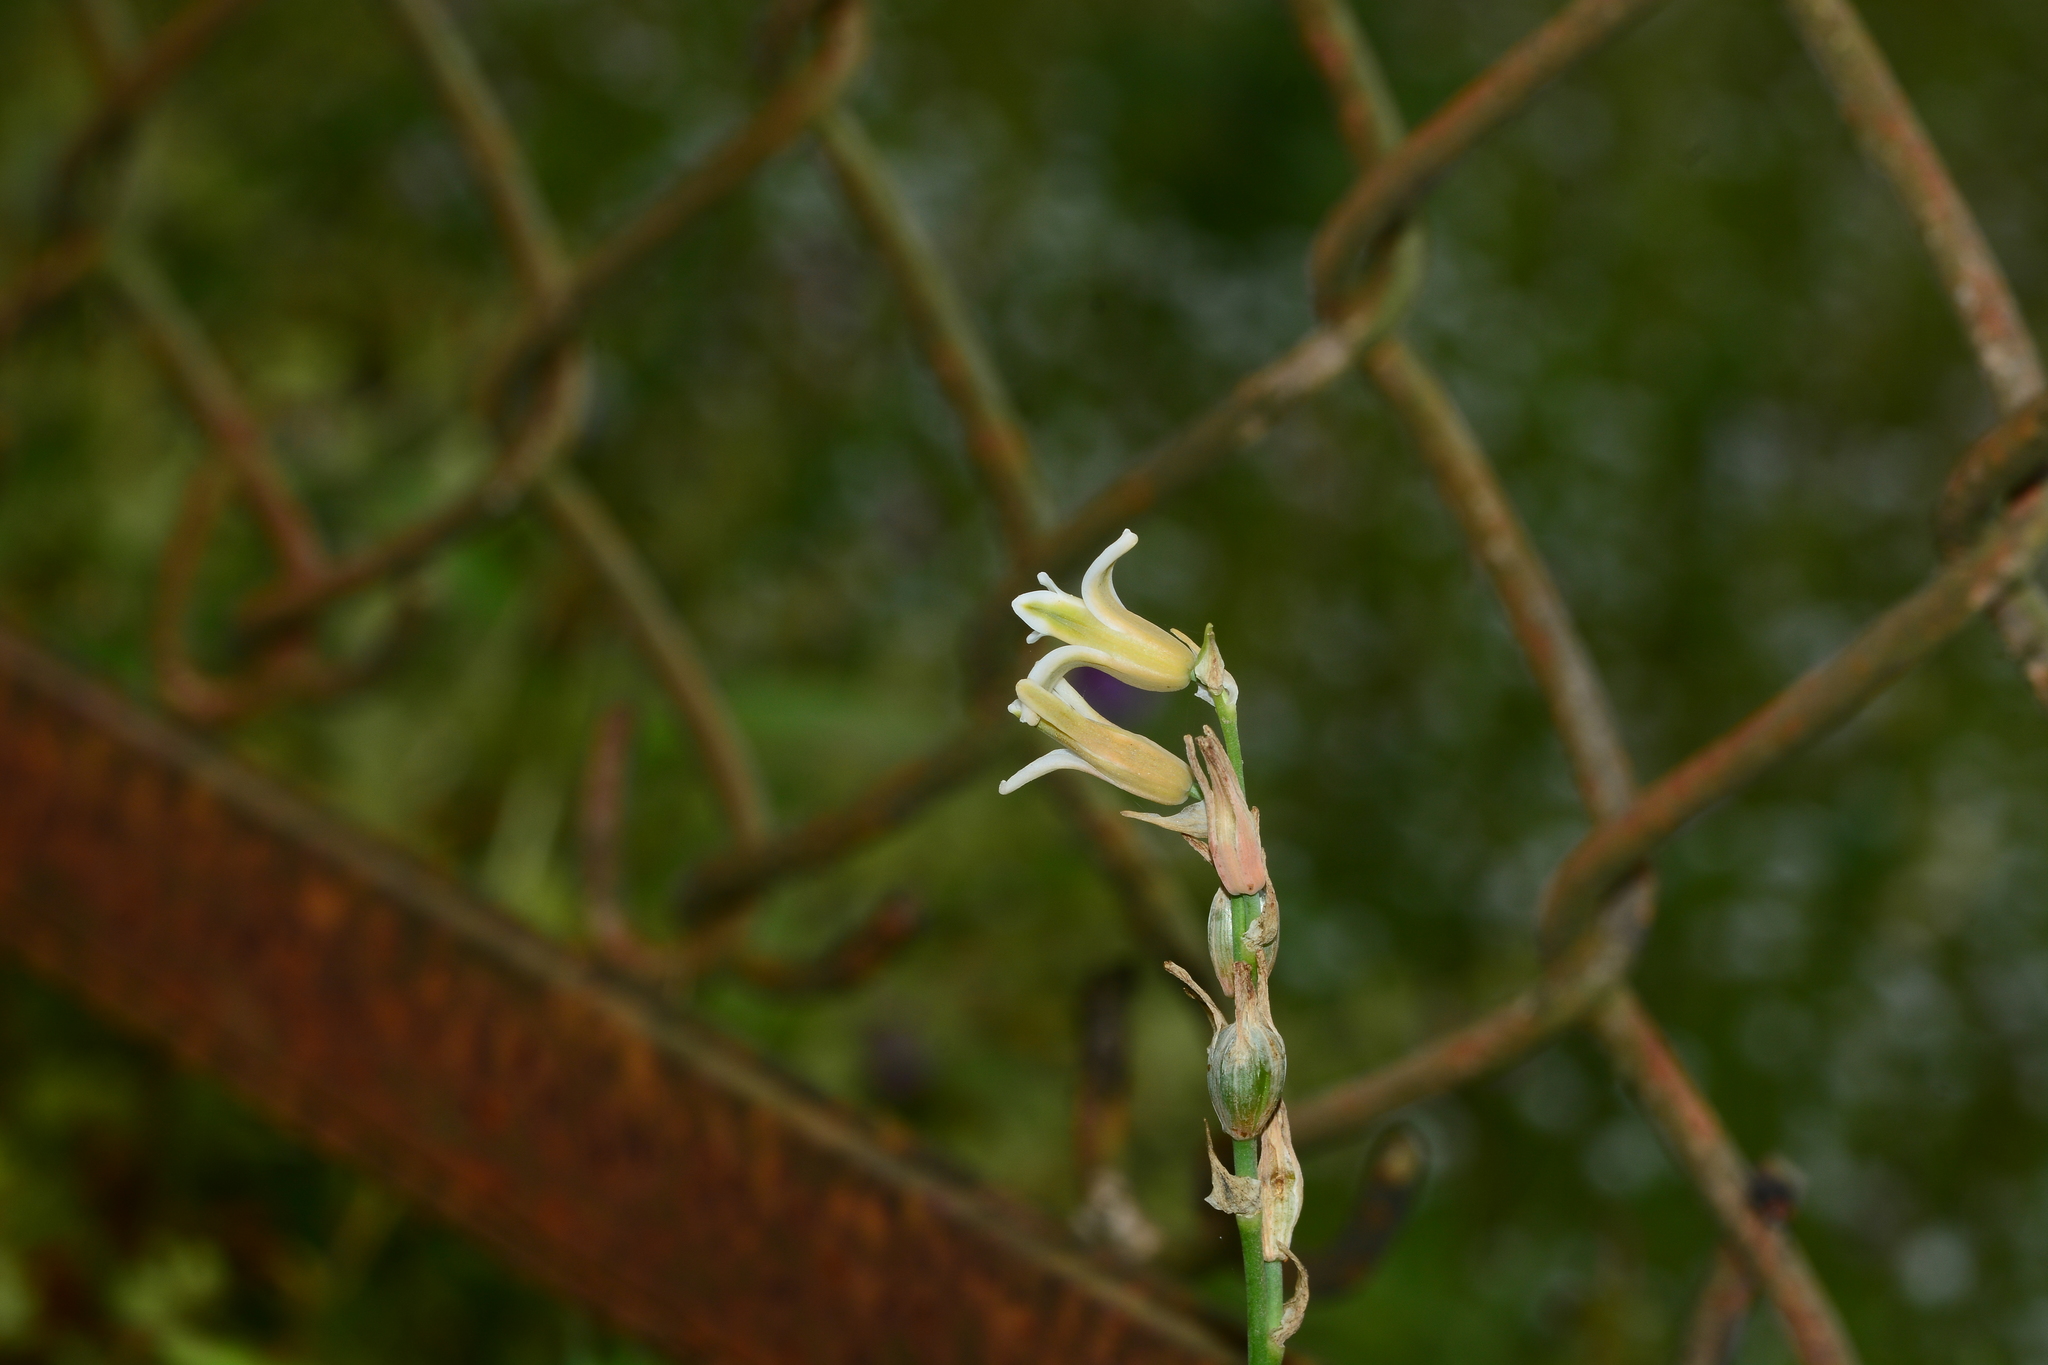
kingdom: Plantae
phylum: Tracheophyta
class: Liliopsida
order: Asparagales
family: Asparagaceae
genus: Dipcadi
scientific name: Dipcadi ursulae
